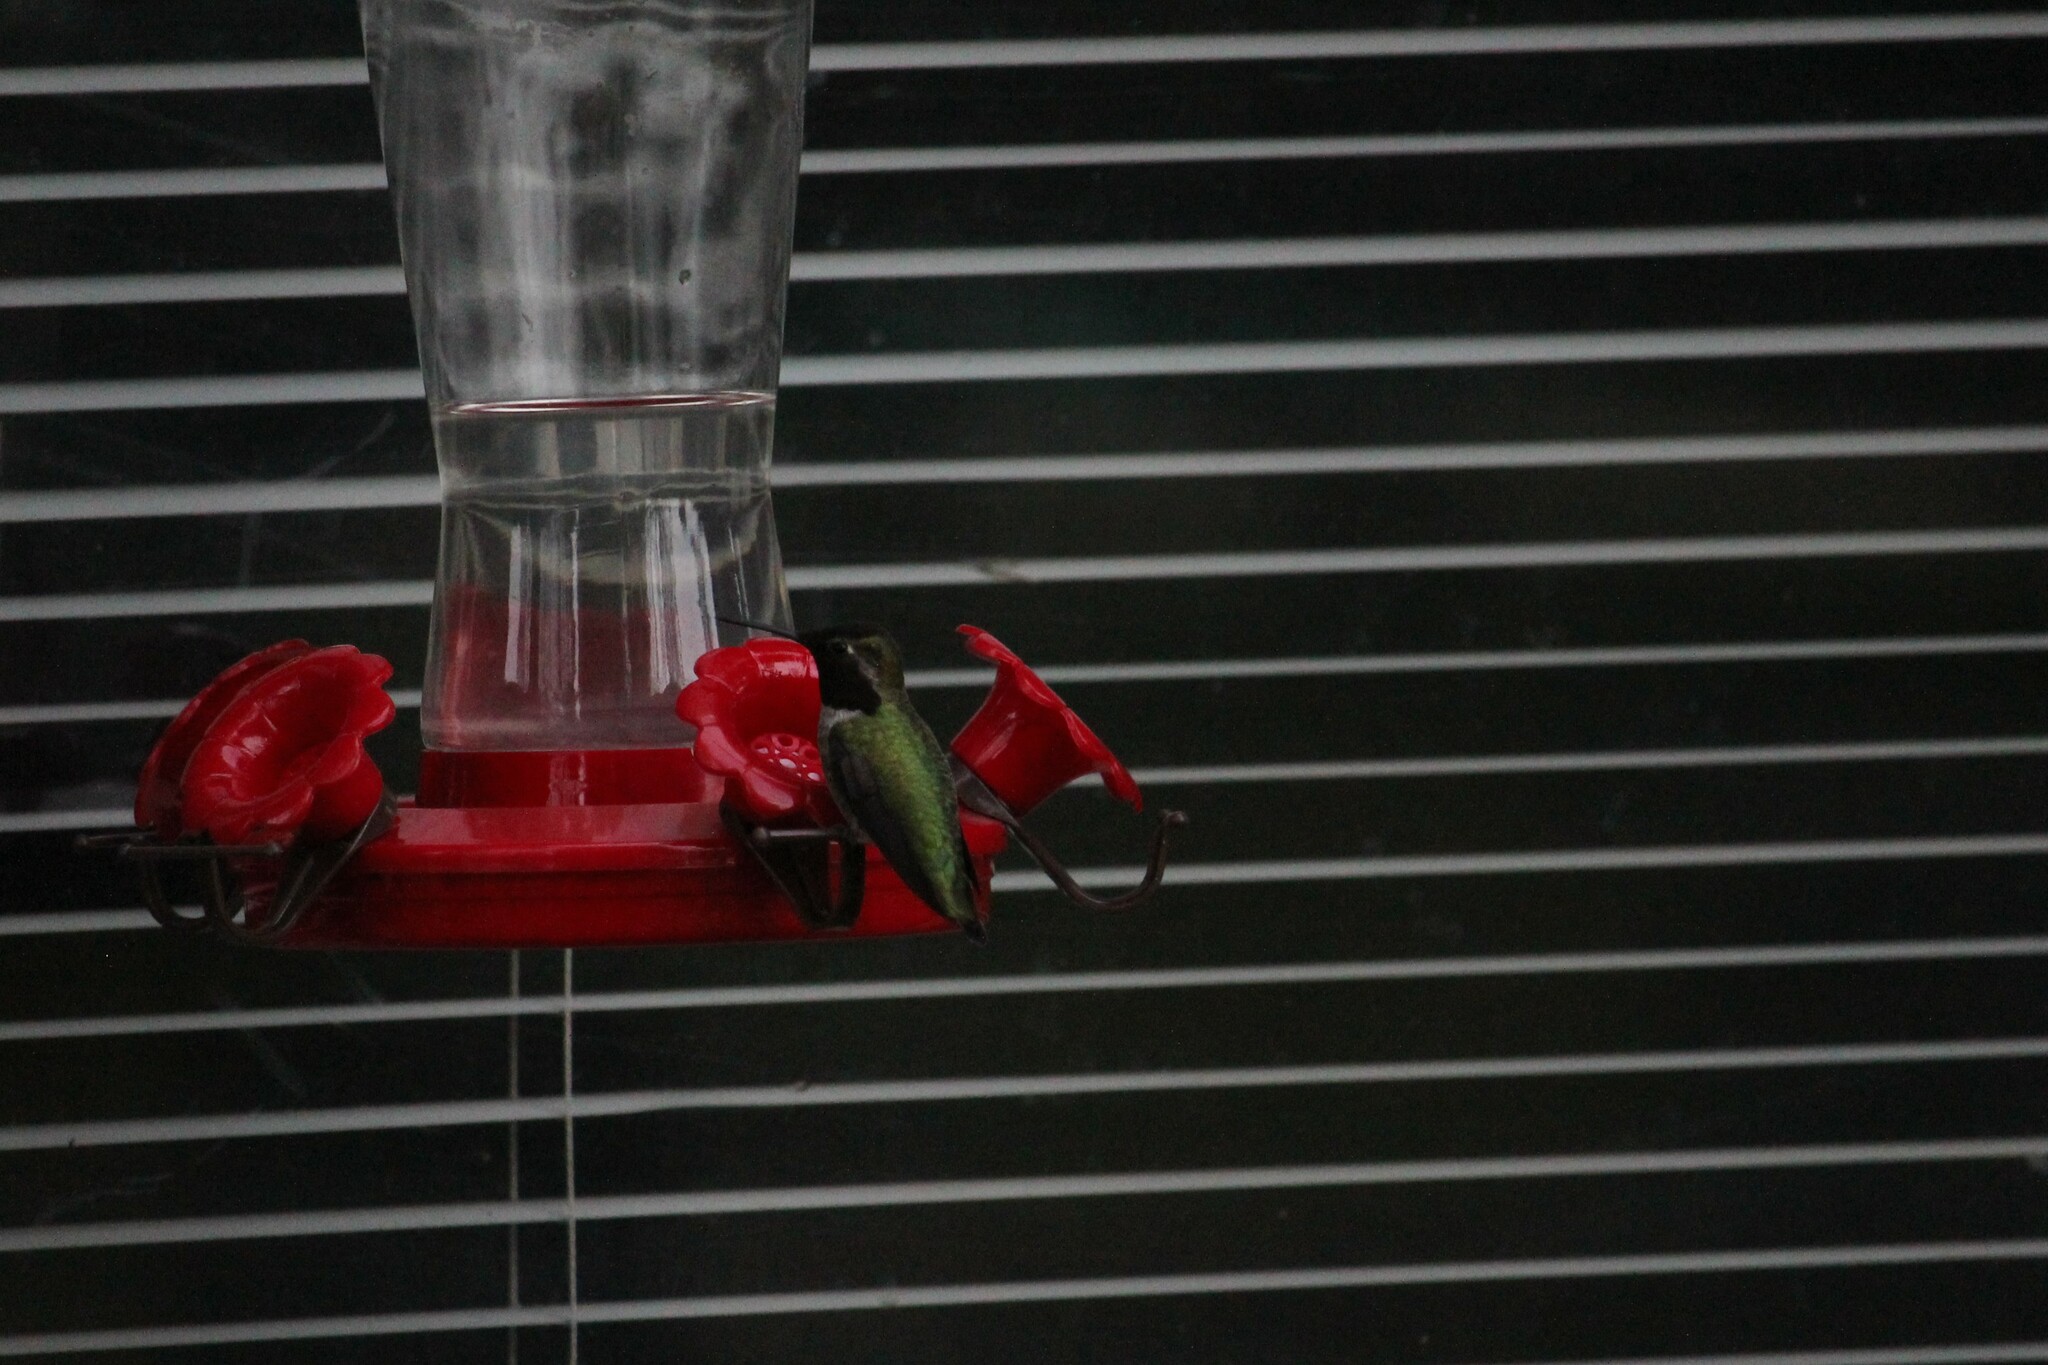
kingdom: Animalia
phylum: Chordata
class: Aves
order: Apodiformes
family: Trochilidae
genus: Calypte
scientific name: Calypte anna
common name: Anna's hummingbird
